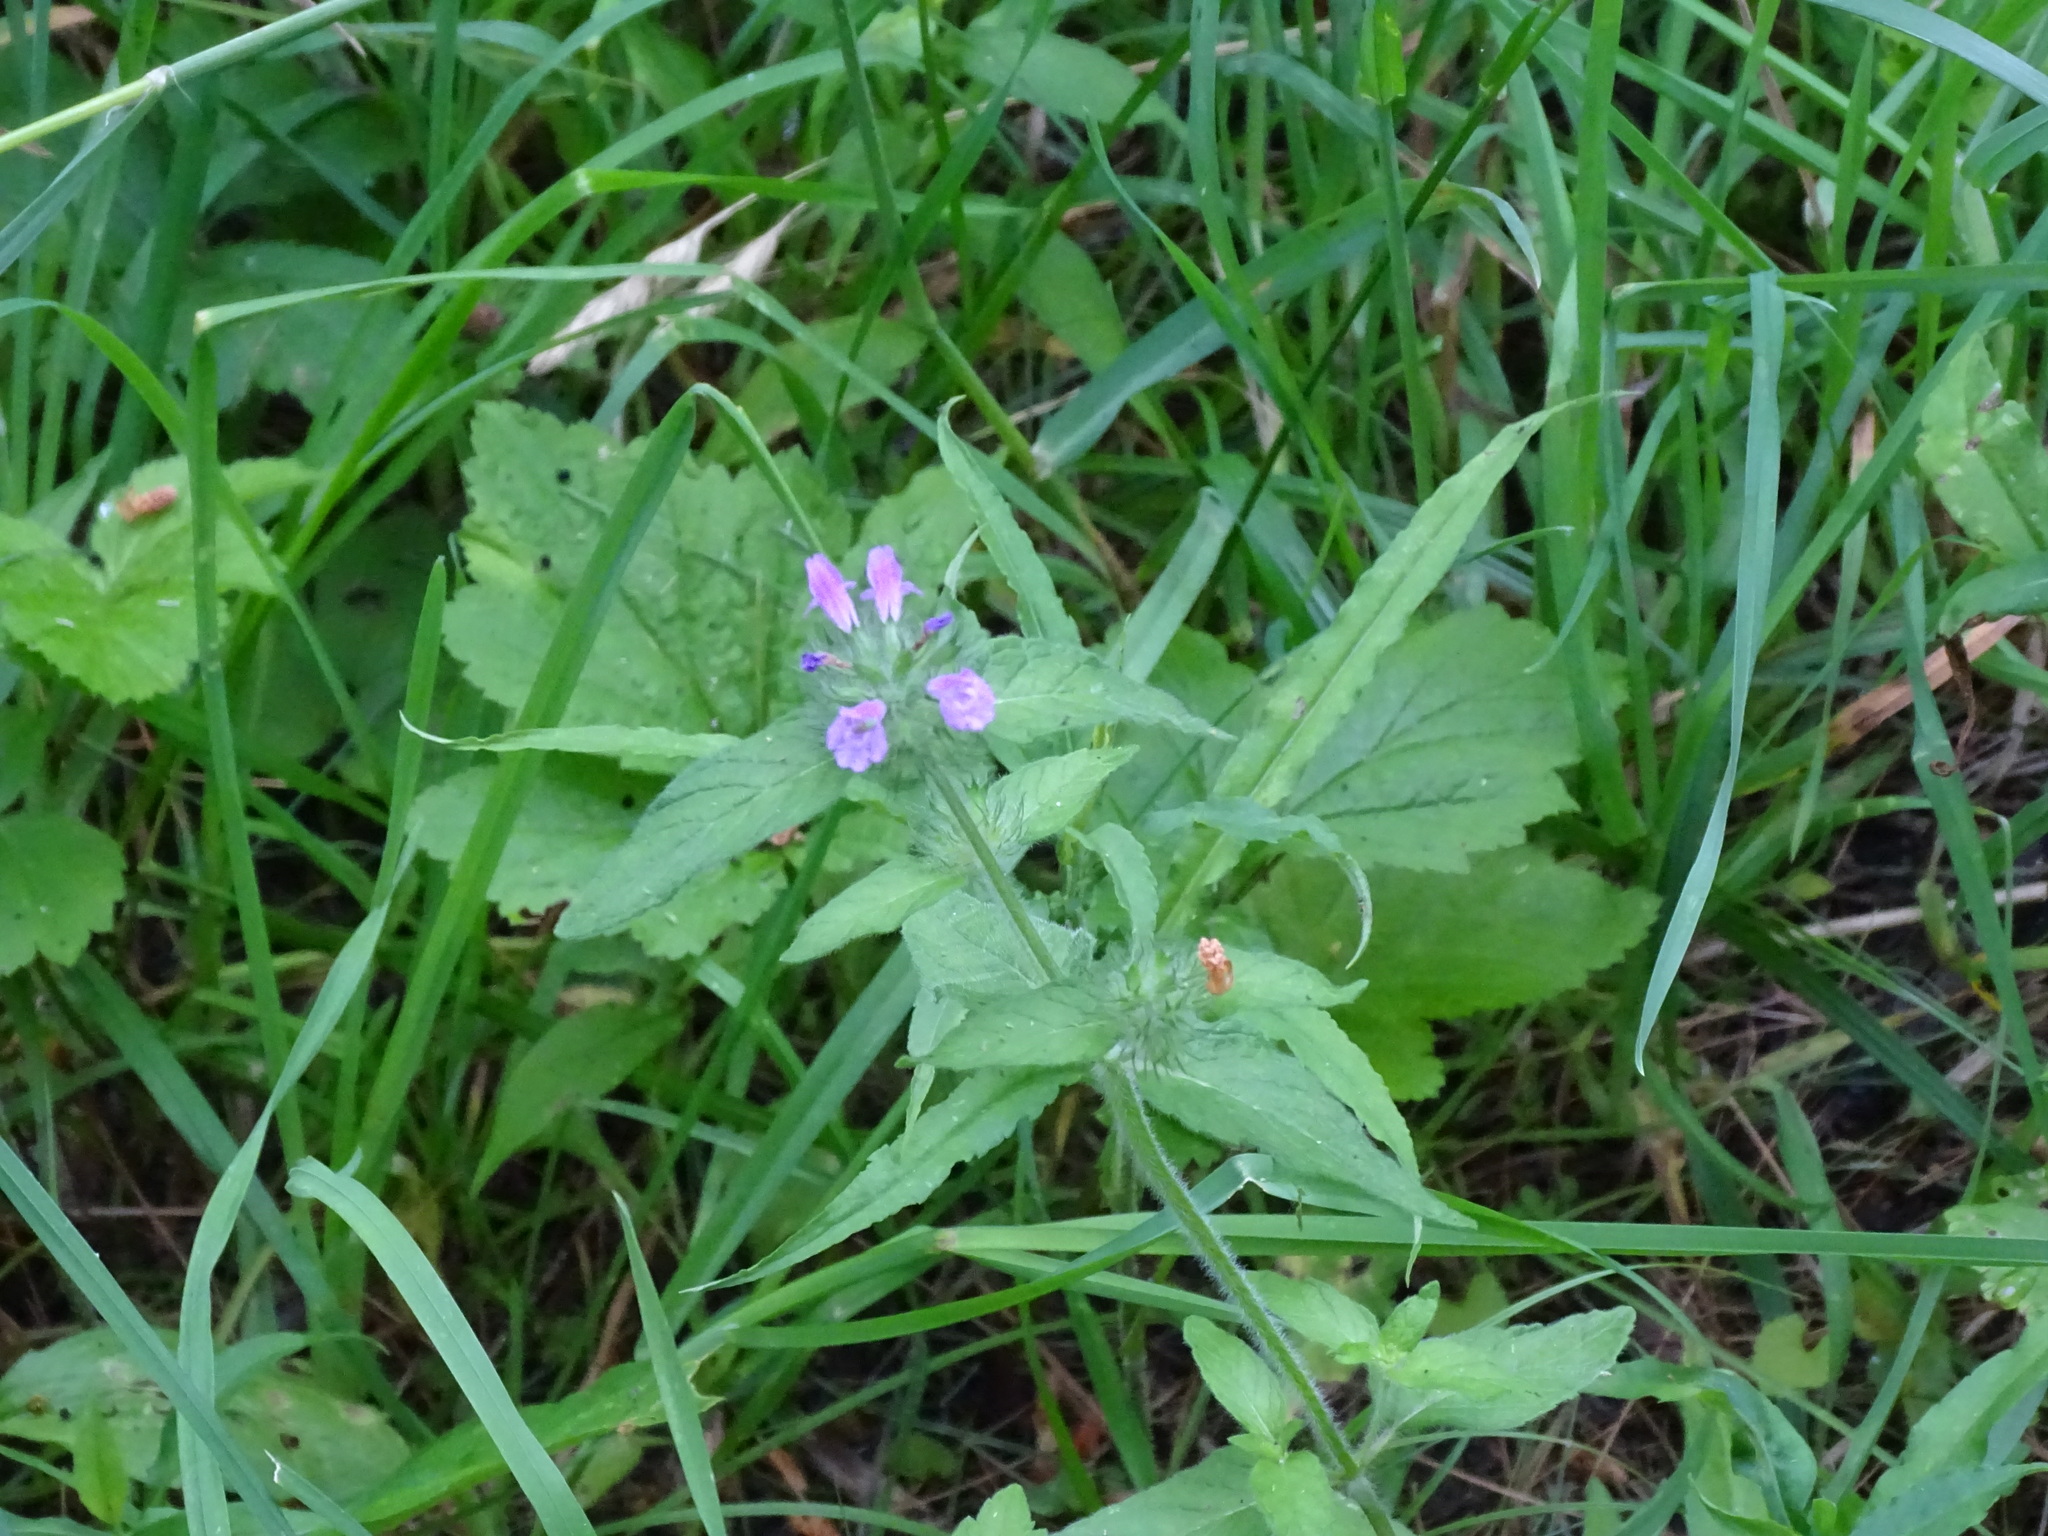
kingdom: Plantae
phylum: Tracheophyta
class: Magnoliopsida
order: Lamiales
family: Lamiaceae
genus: Clinopodium
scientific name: Clinopodium vulgare
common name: Wild basil
